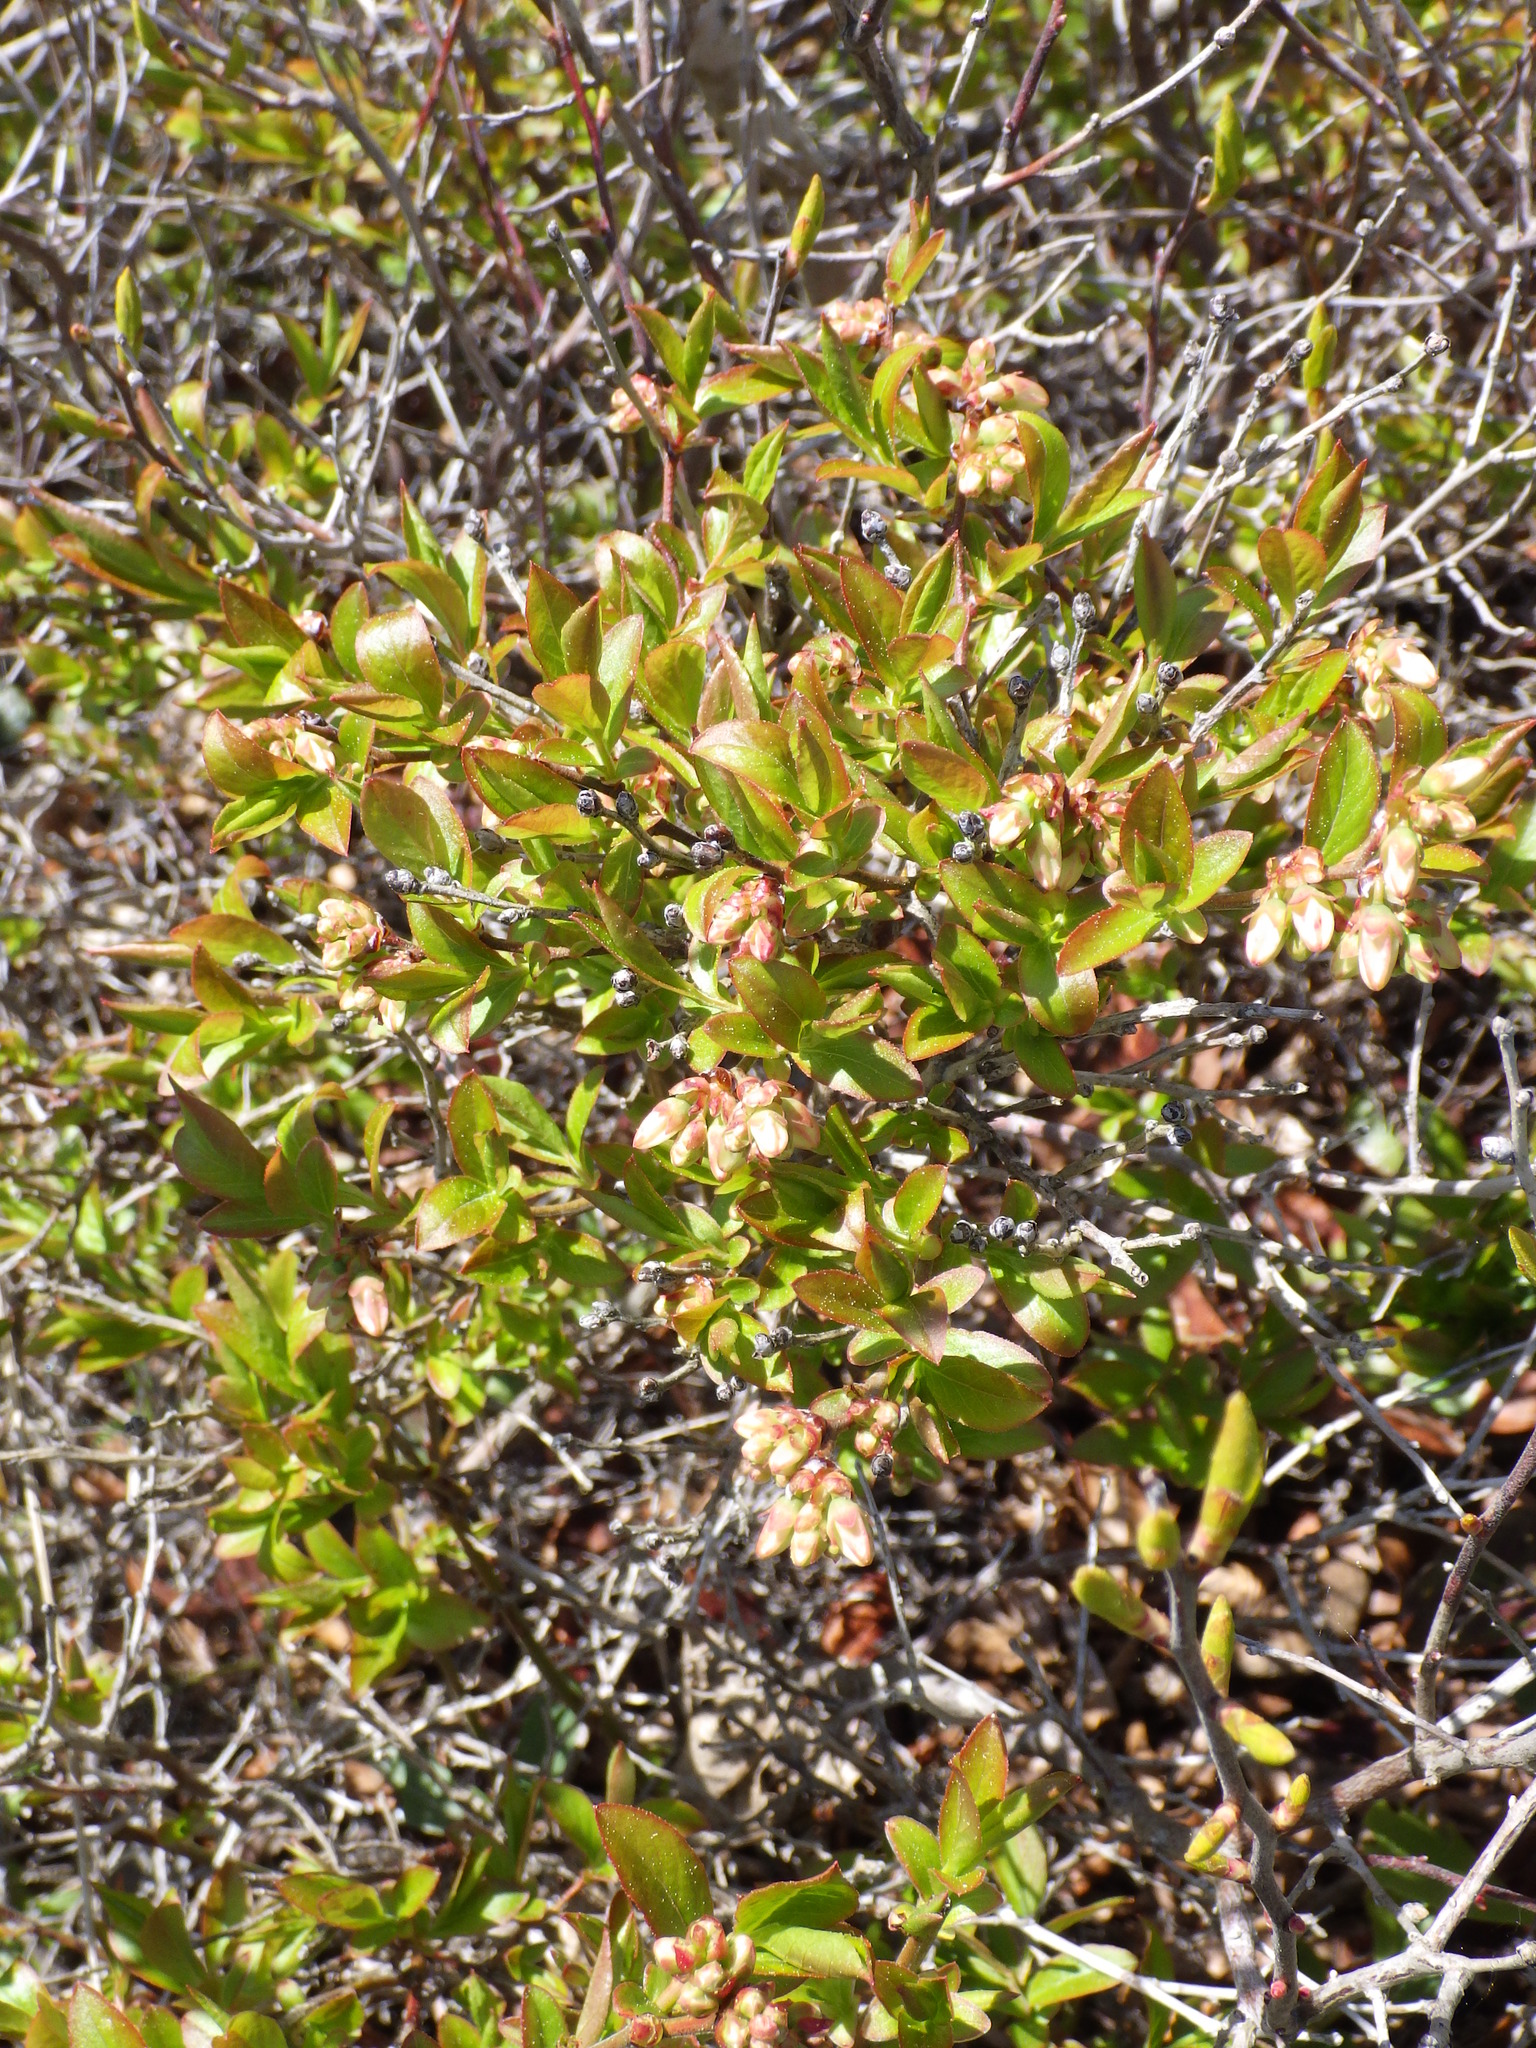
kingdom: Plantae
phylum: Tracheophyta
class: Magnoliopsida
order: Ericales
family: Ericaceae
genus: Vaccinium
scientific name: Vaccinium angustifolium
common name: Early lowbush blueberry
